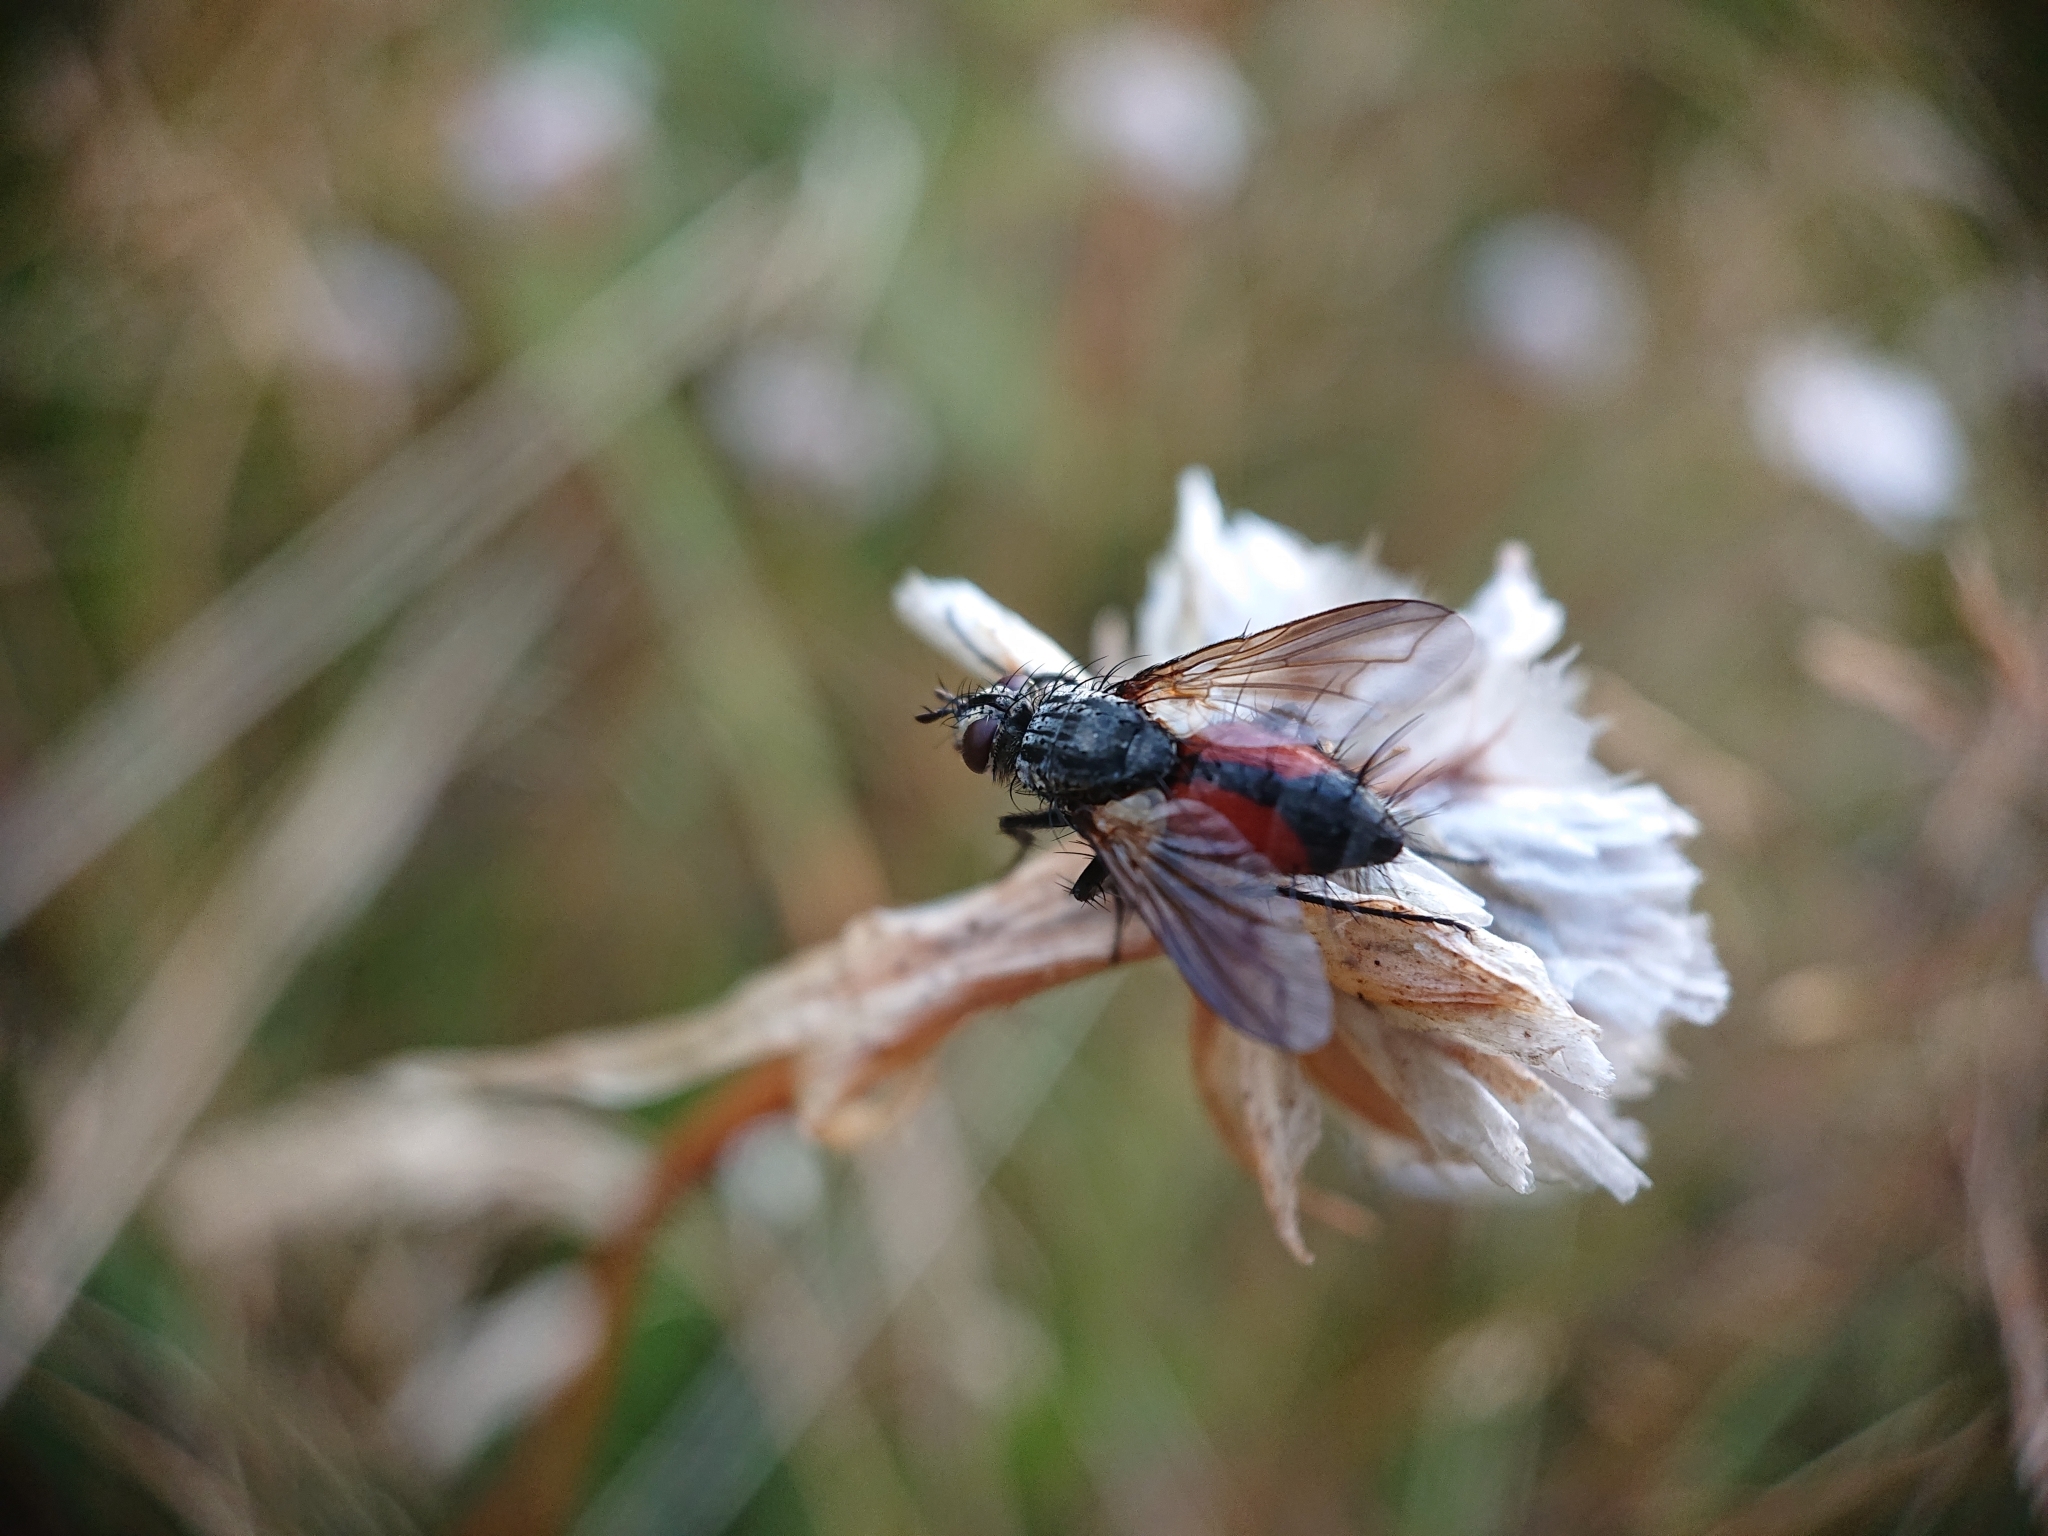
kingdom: Animalia
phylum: Arthropoda
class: Insecta
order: Diptera
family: Tachinidae
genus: Eriothrix
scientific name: Eriothrix rufomaculatus
